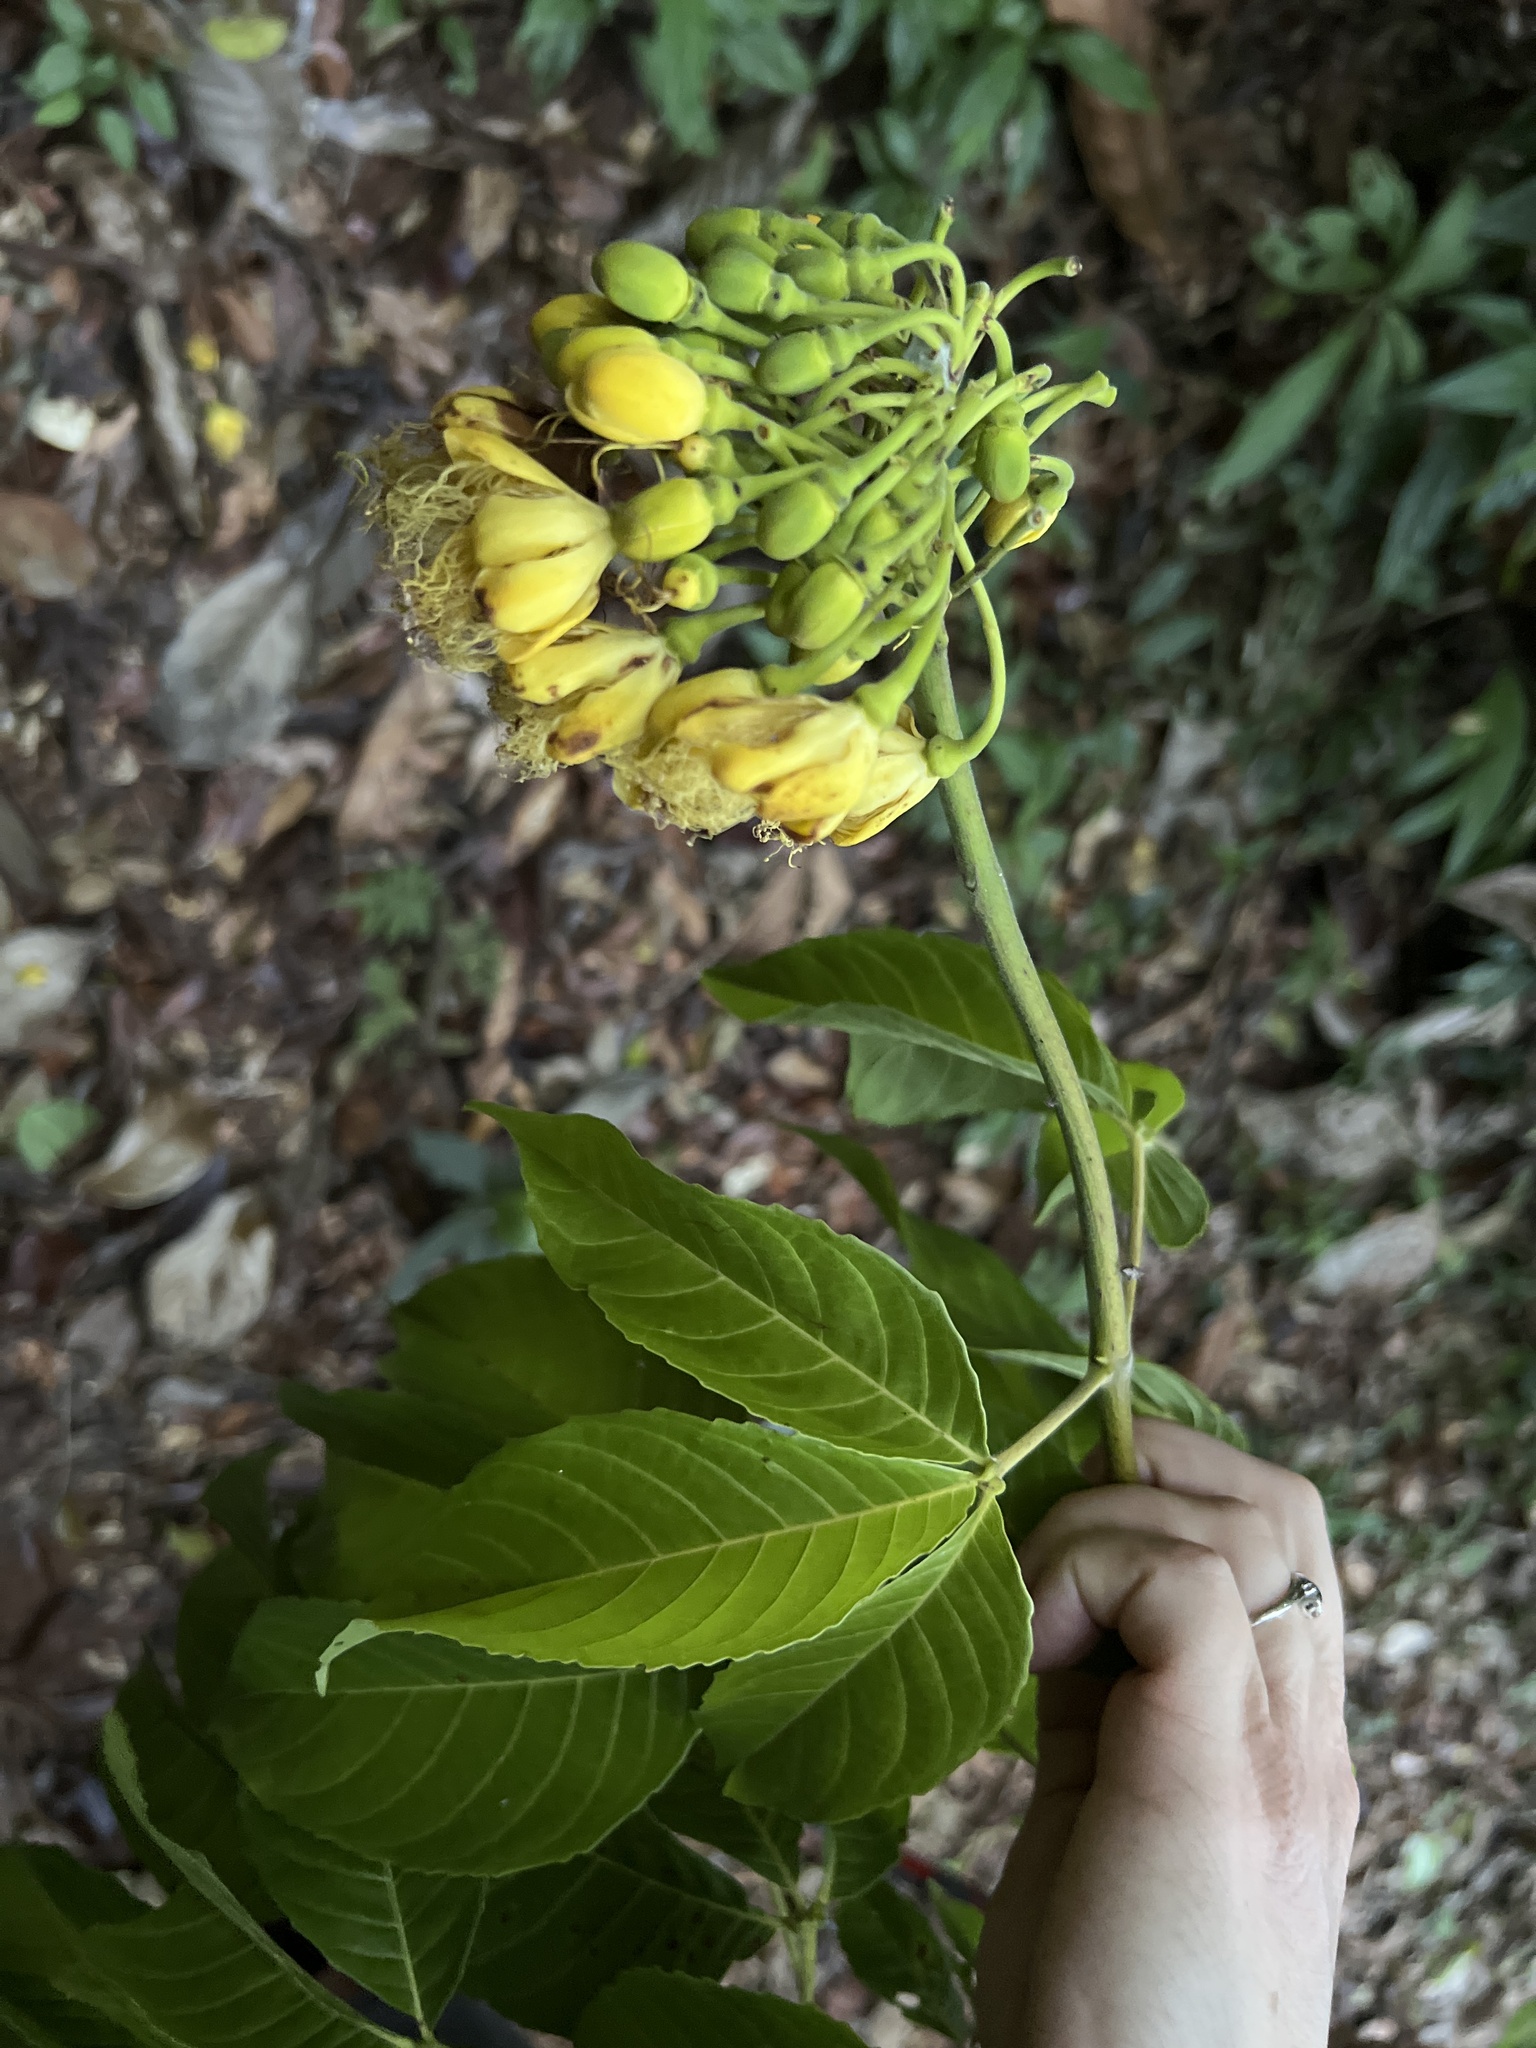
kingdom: Plantae
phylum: Tracheophyta
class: Magnoliopsida
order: Malpighiales
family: Caryocaraceae
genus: Caryocar
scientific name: Caryocar costaricense
